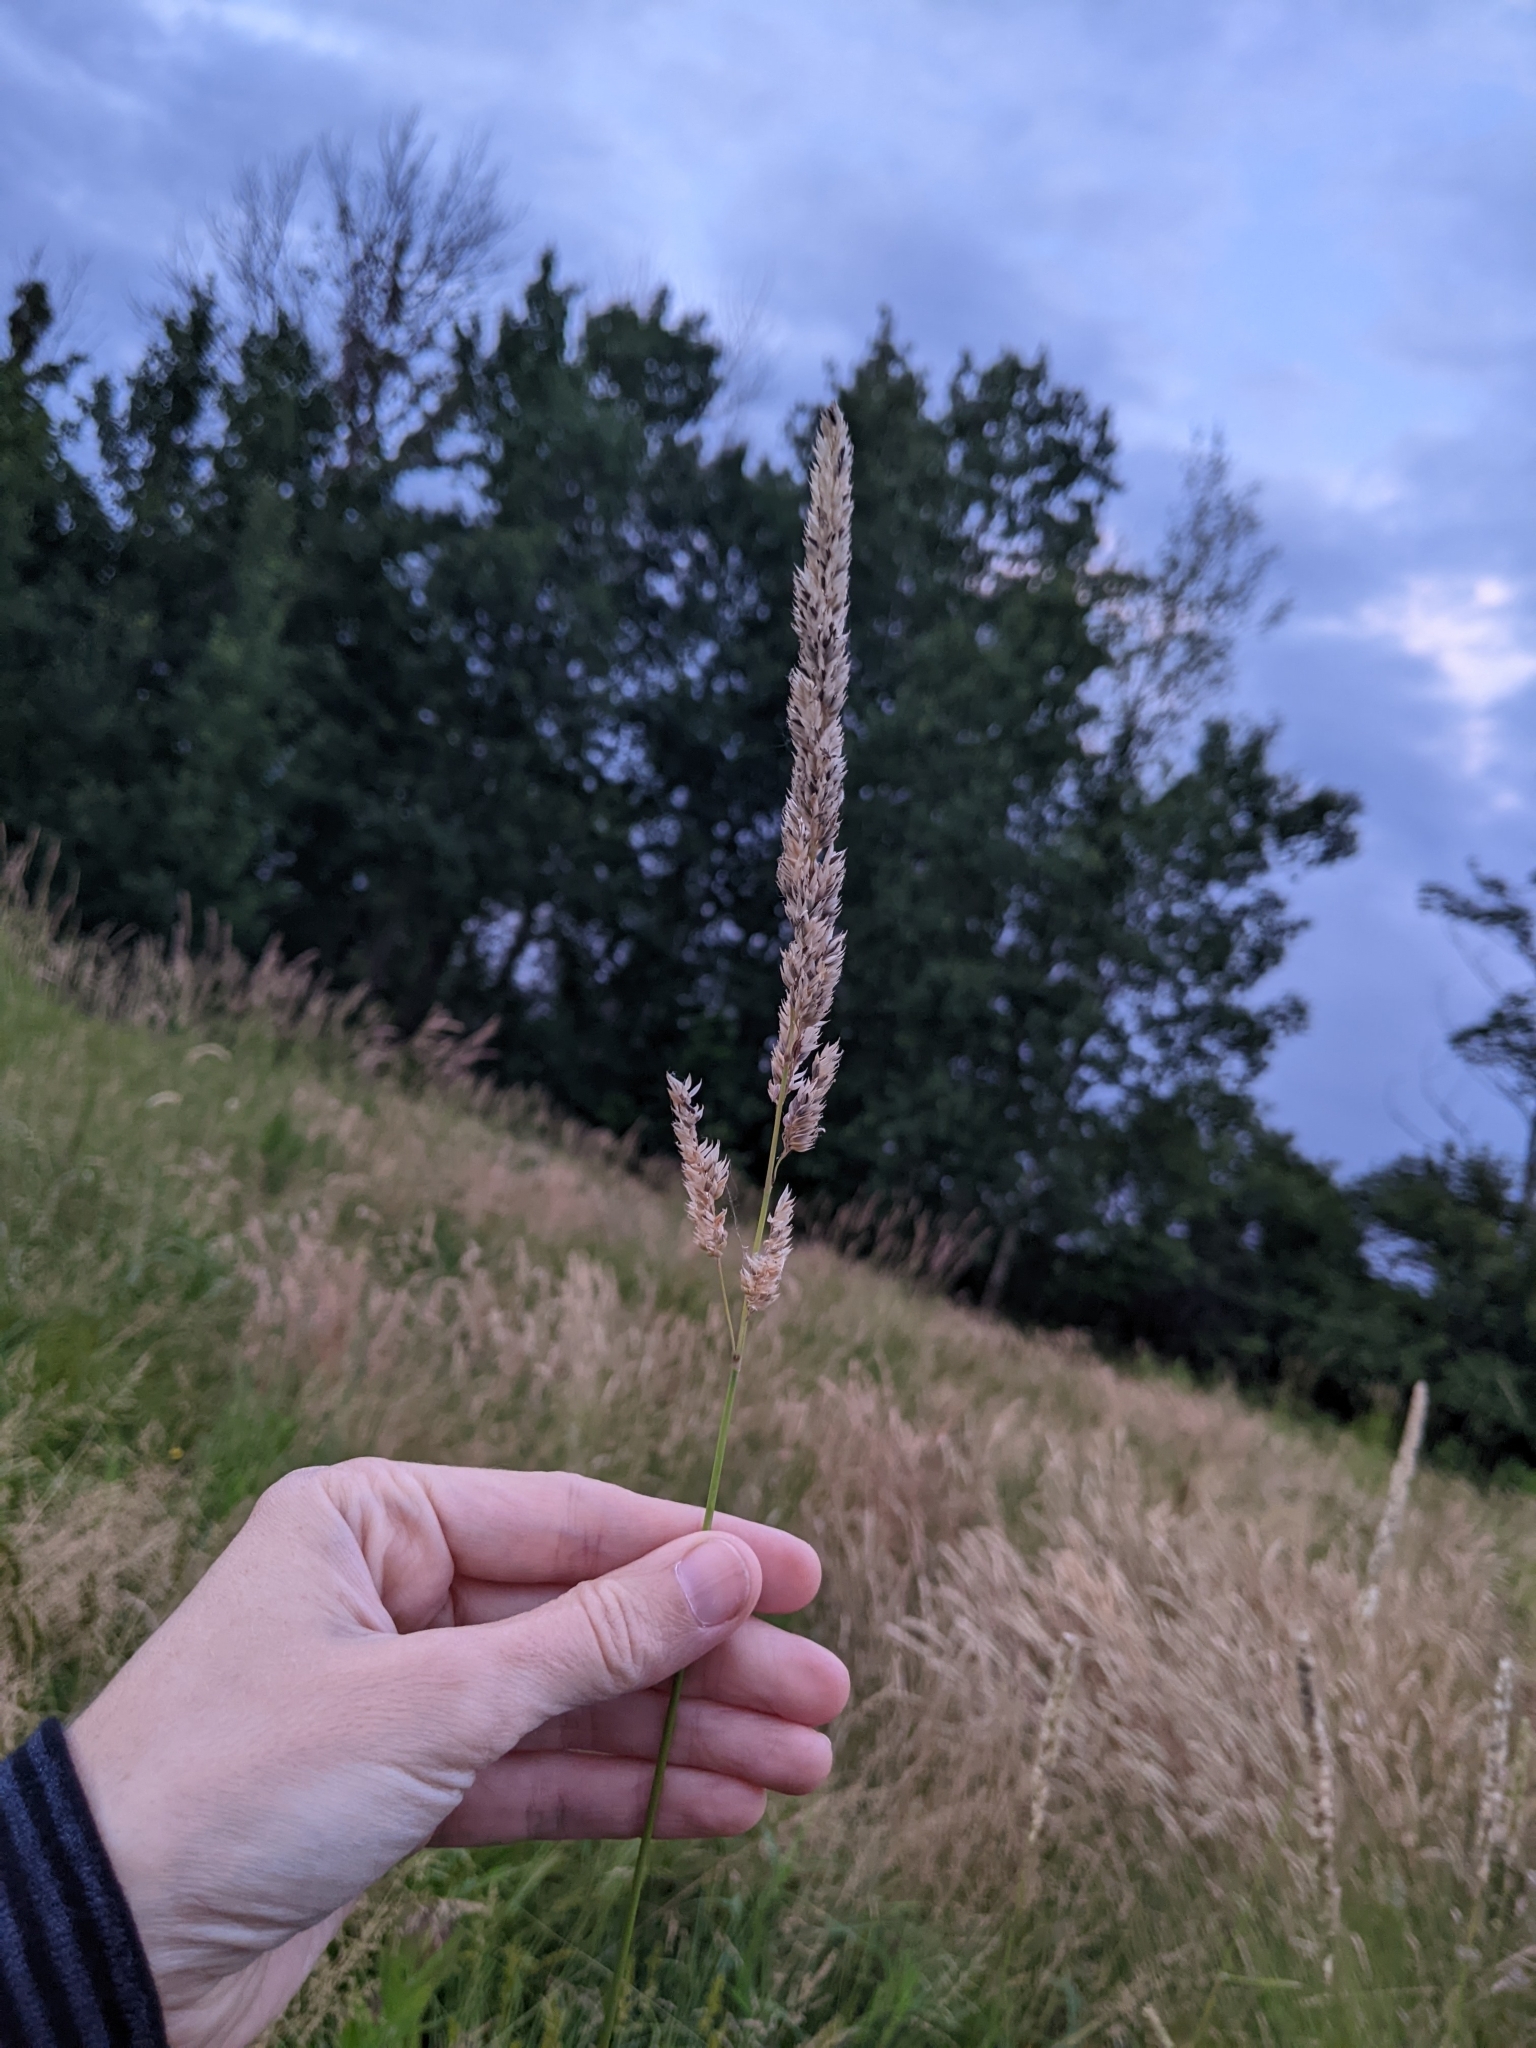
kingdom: Plantae
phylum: Tracheophyta
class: Liliopsida
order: Poales
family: Poaceae
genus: Phalaris
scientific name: Phalaris arundinacea
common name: Reed canary-grass
